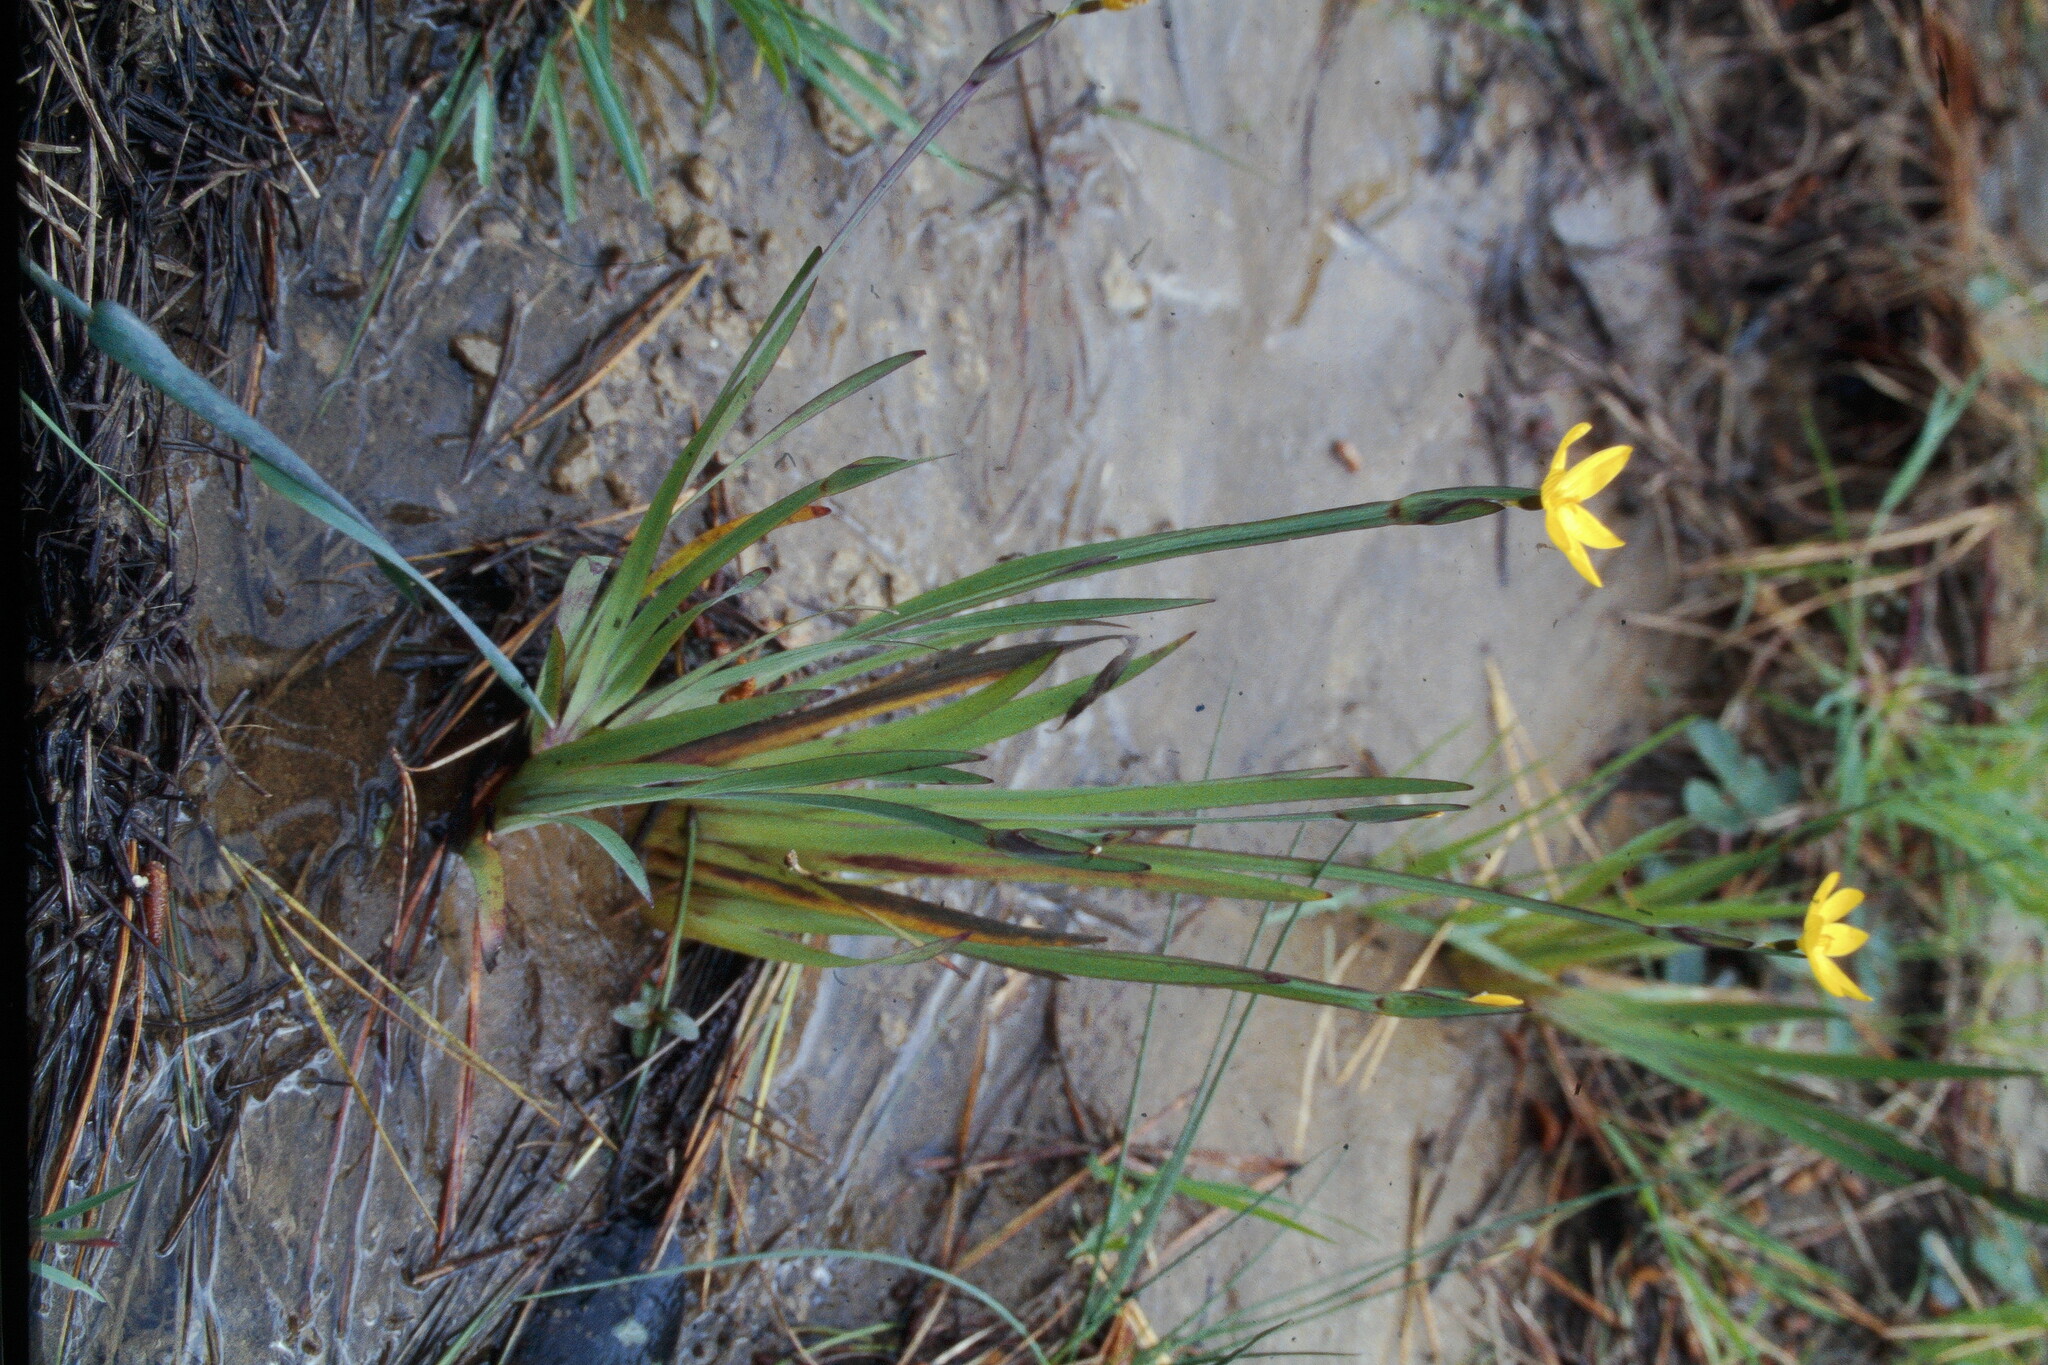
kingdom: Plantae
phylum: Tracheophyta
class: Liliopsida
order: Asparagales
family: Iridaceae
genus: Sisyrinchium
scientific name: Sisyrinchium californicum
